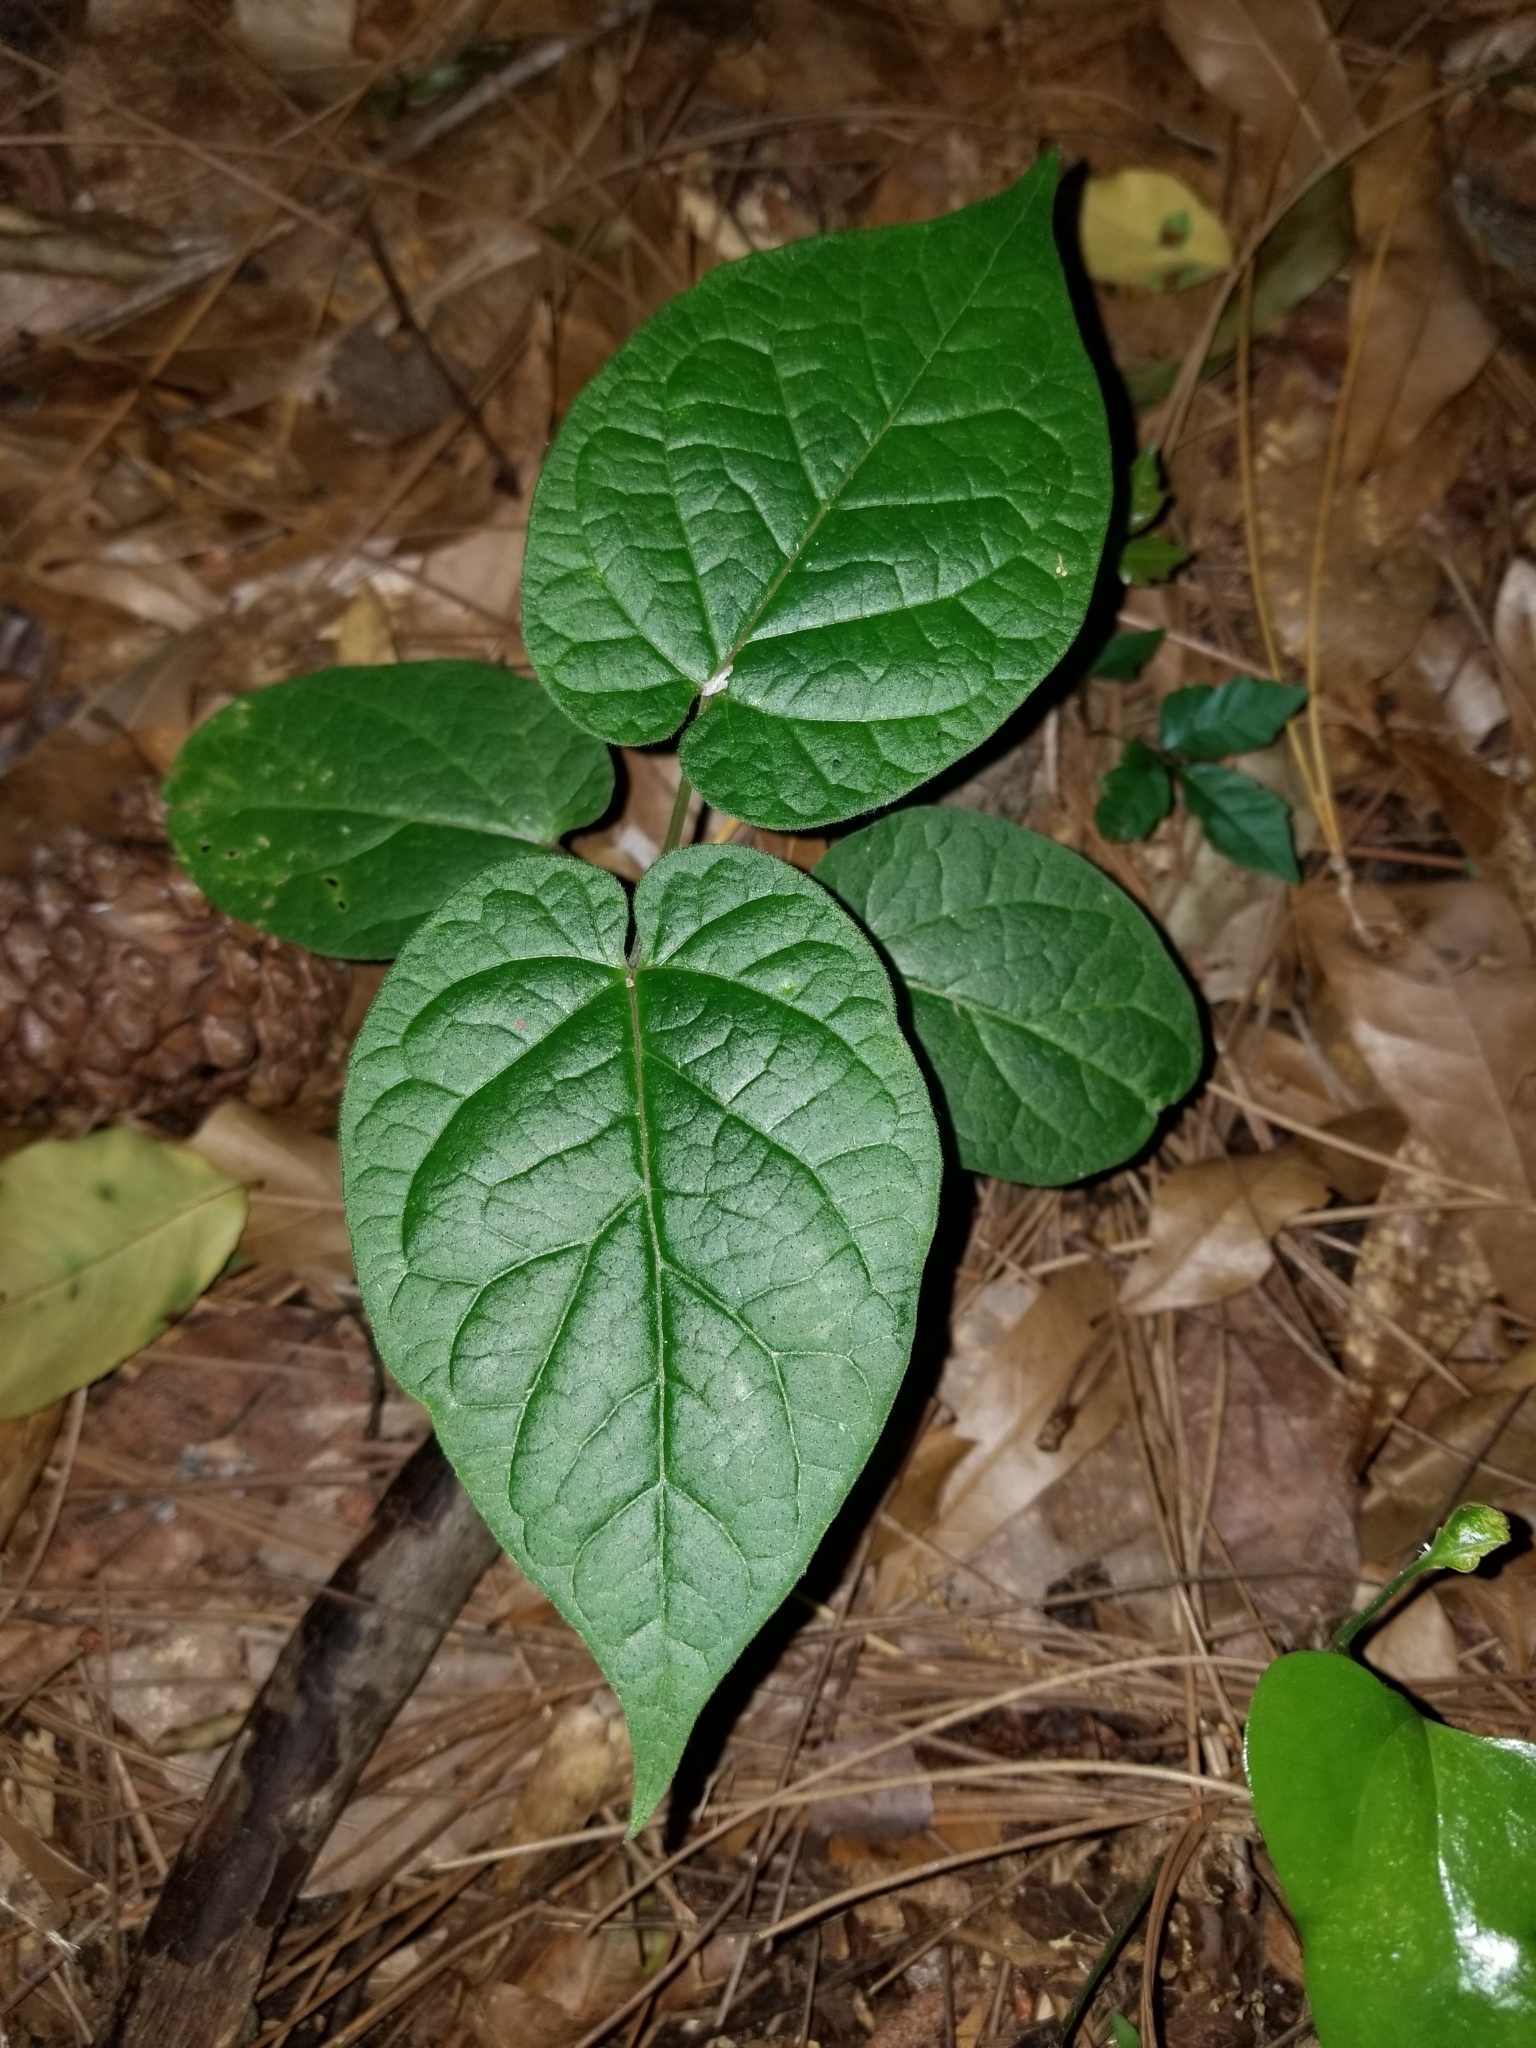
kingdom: Plantae
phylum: Tracheophyta
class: Magnoliopsida
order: Gentianales
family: Apocynaceae
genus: Gonolobus
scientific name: Gonolobus suberosus
